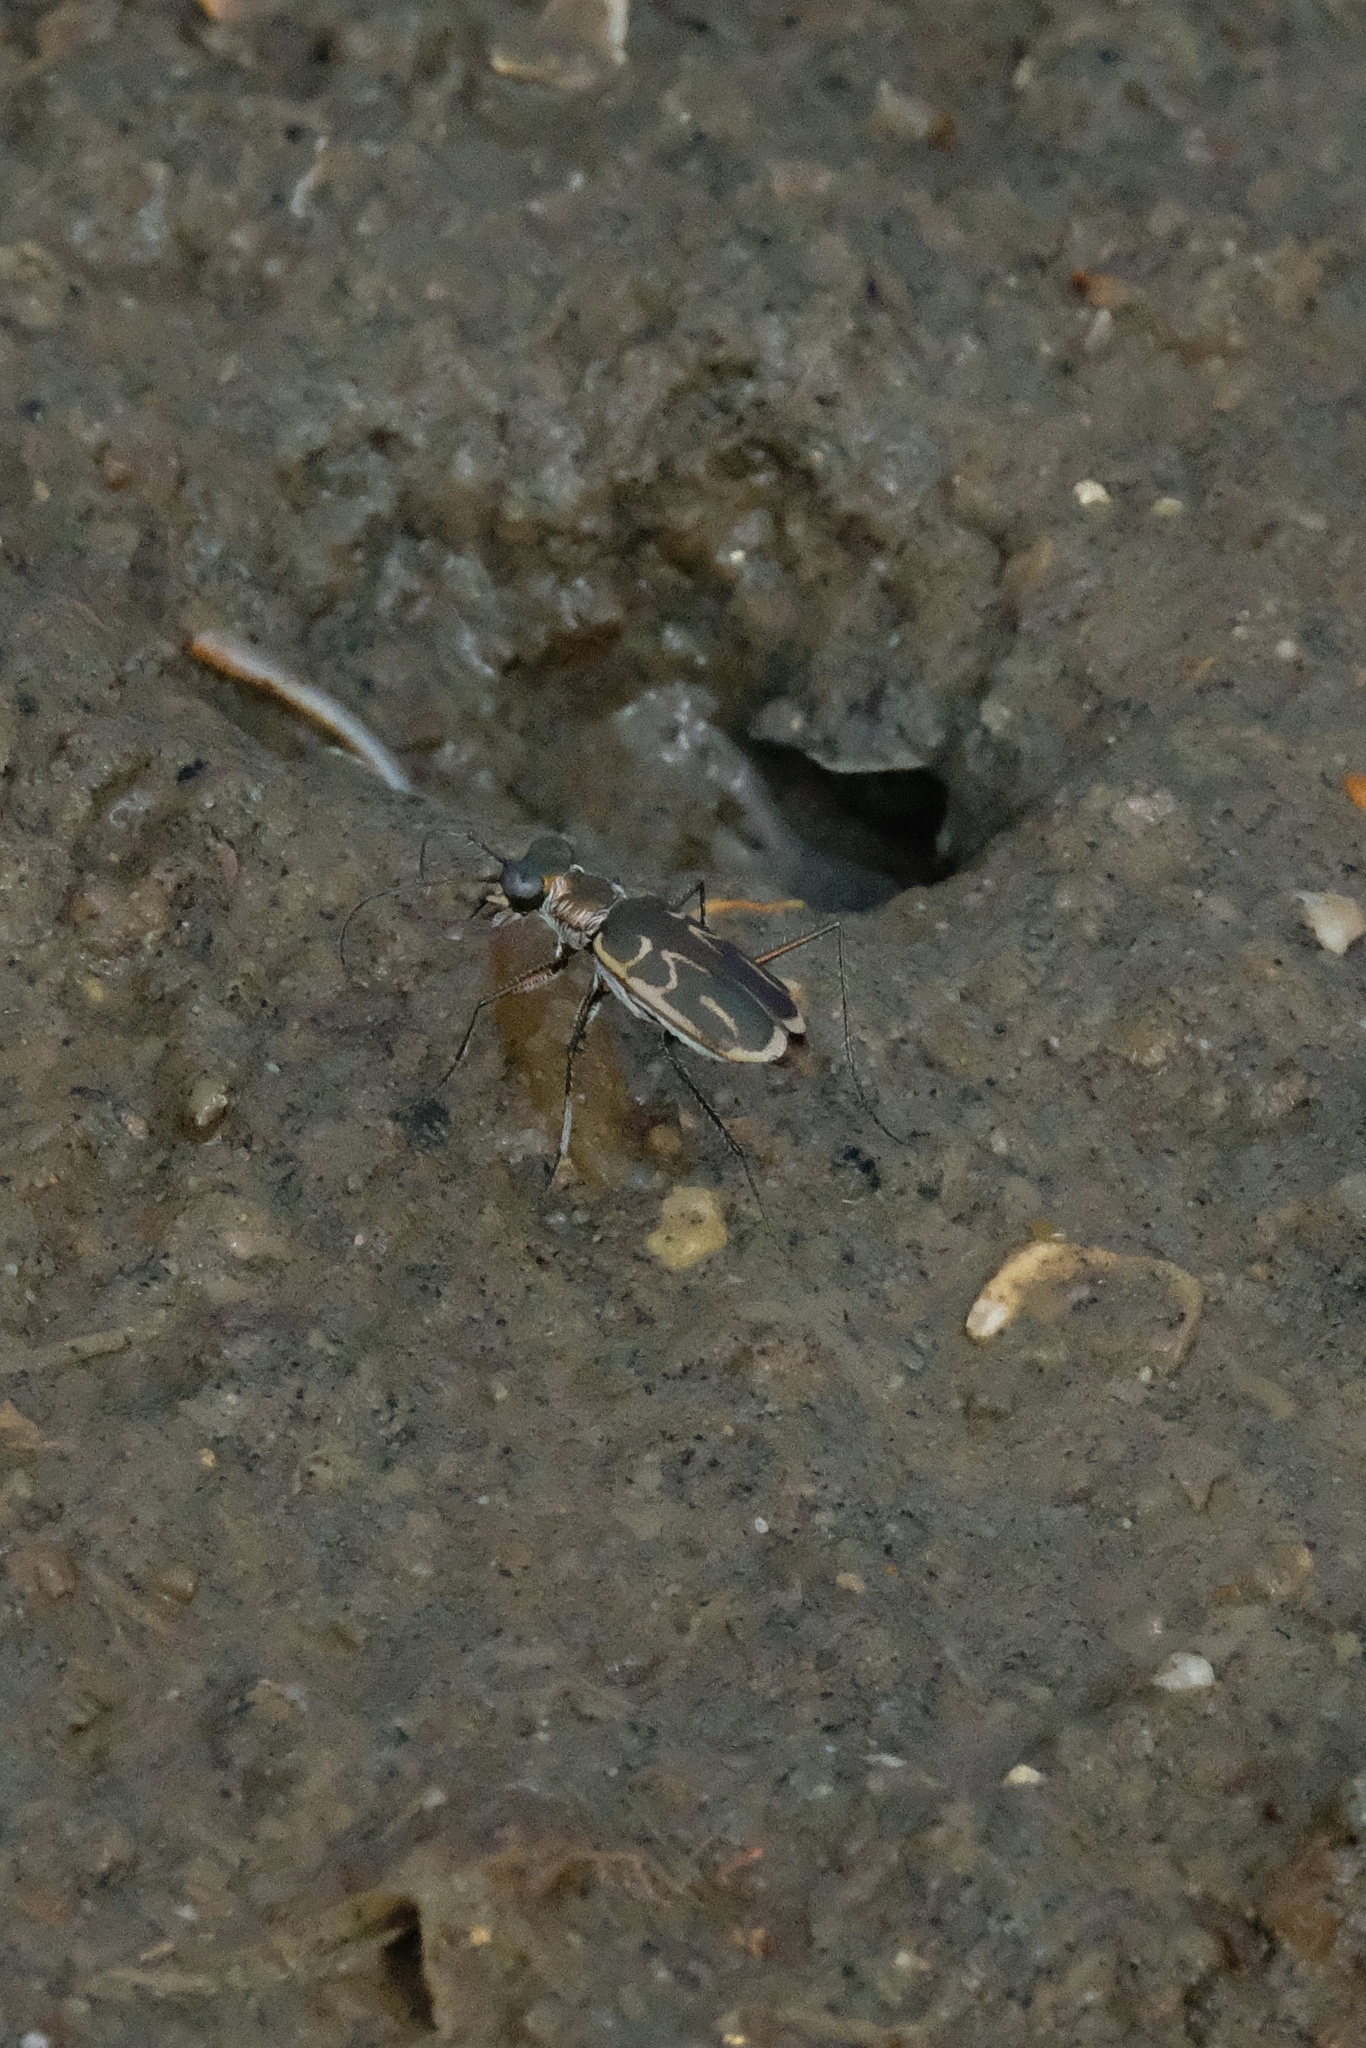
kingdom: Animalia
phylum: Arthropoda
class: Insecta
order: Coleoptera
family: Carabidae
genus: Eunota
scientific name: Eunota gabbii
